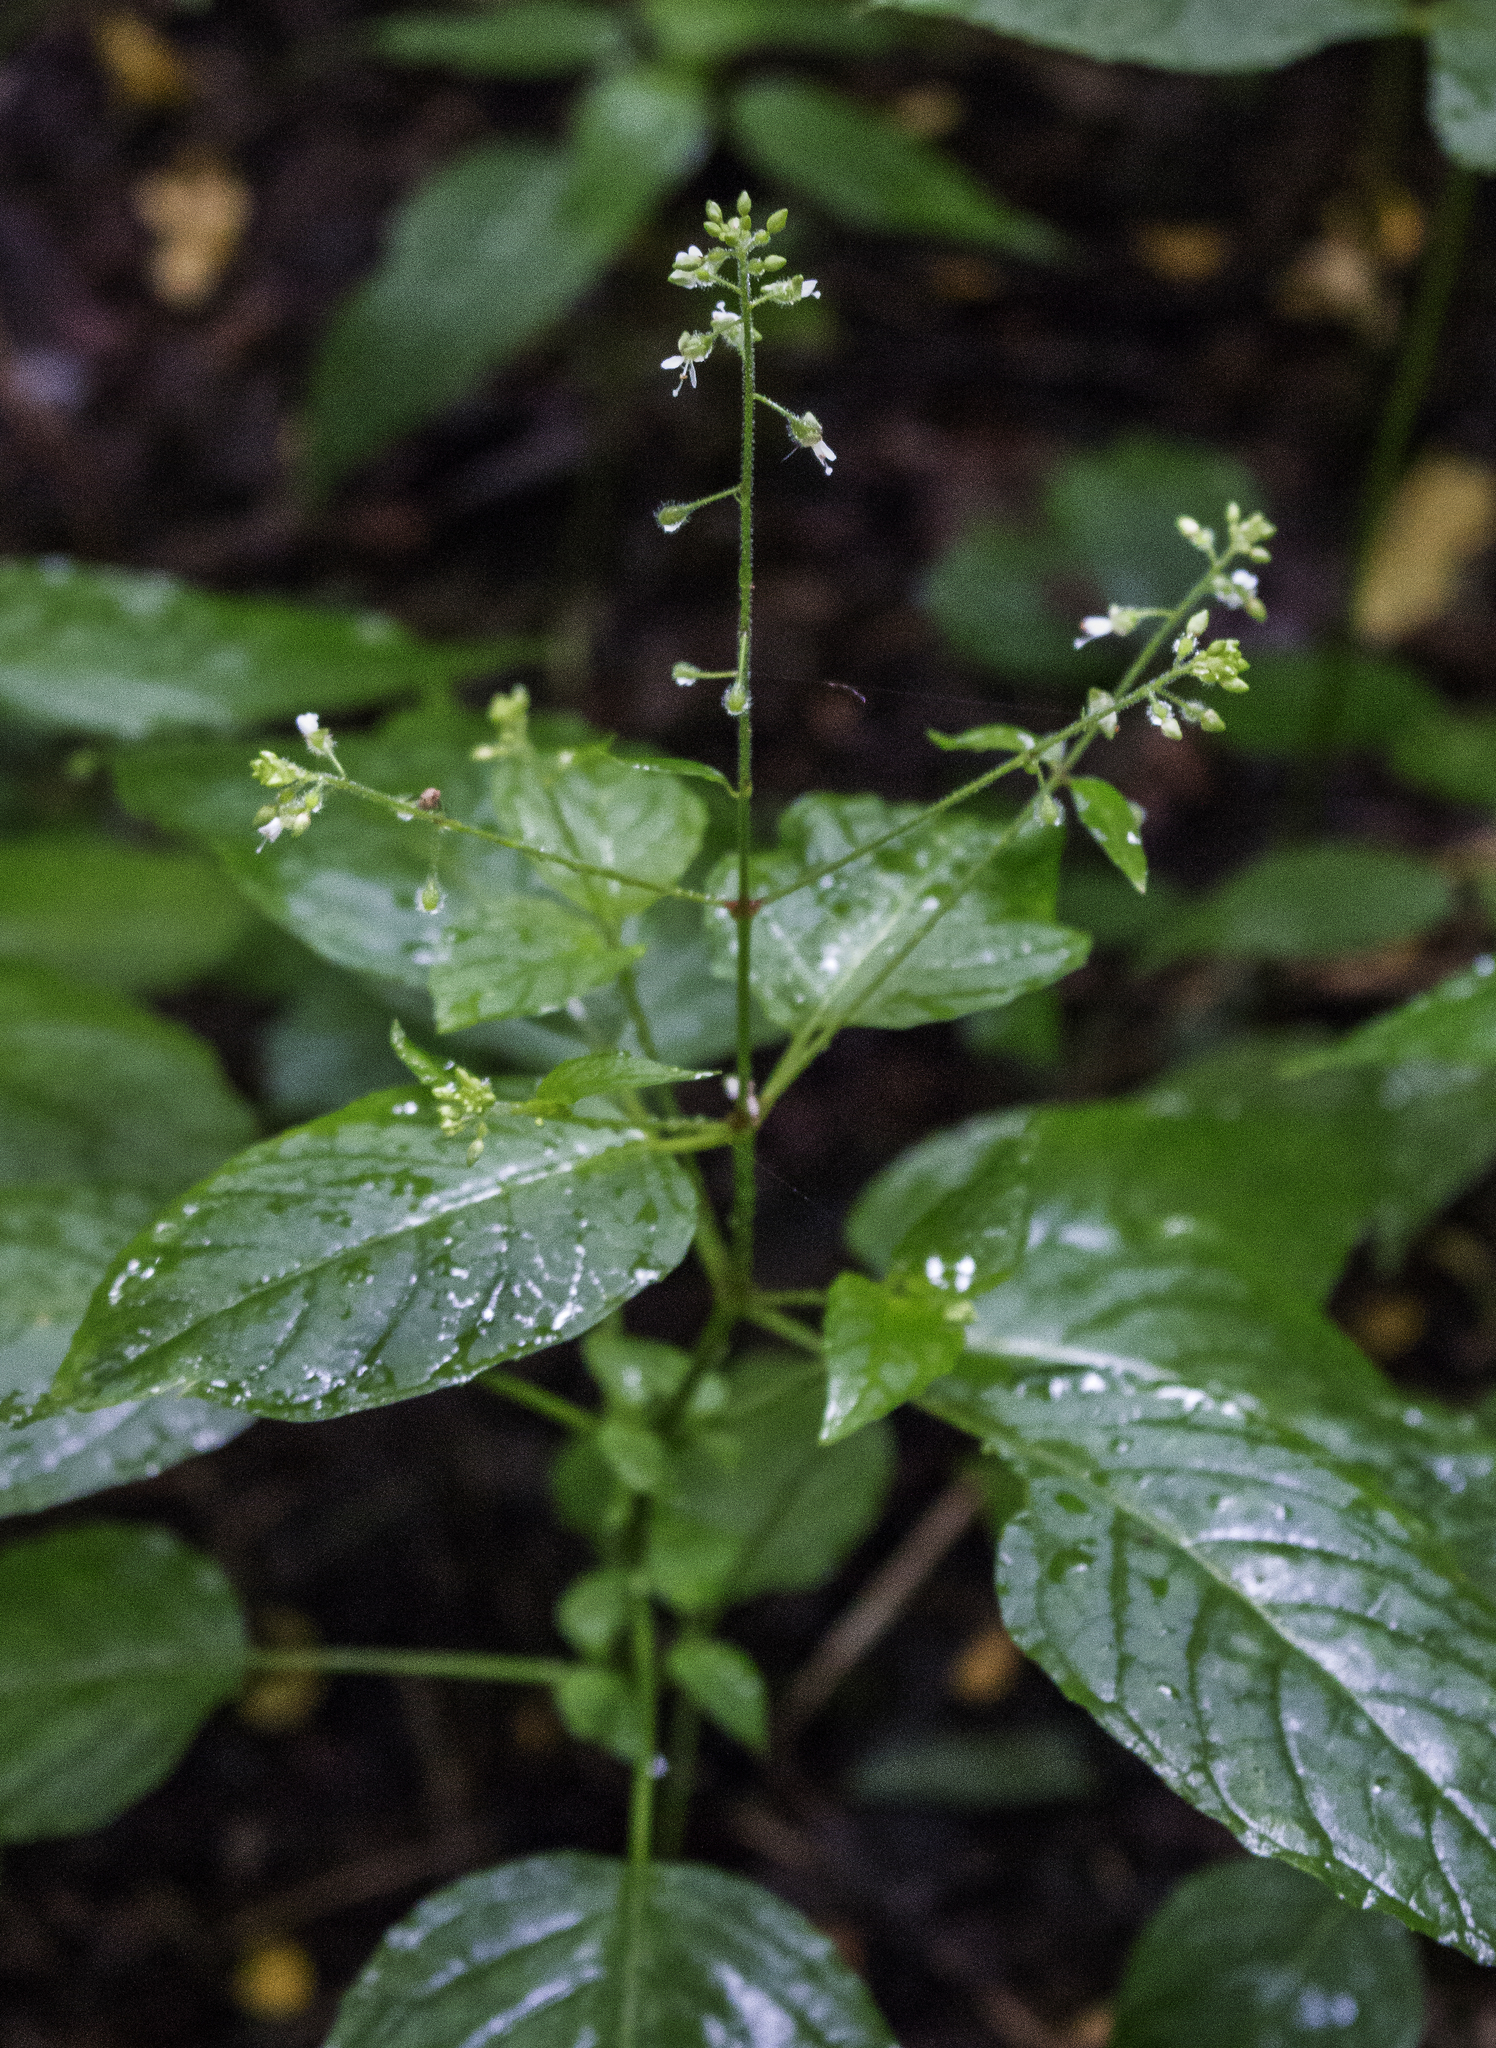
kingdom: Plantae
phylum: Tracheophyta
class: Magnoliopsida
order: Myrtales
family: Onagraceae
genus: Circaea
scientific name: Circaea canadensis
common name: Broad-leaved enchanter's nightshade
